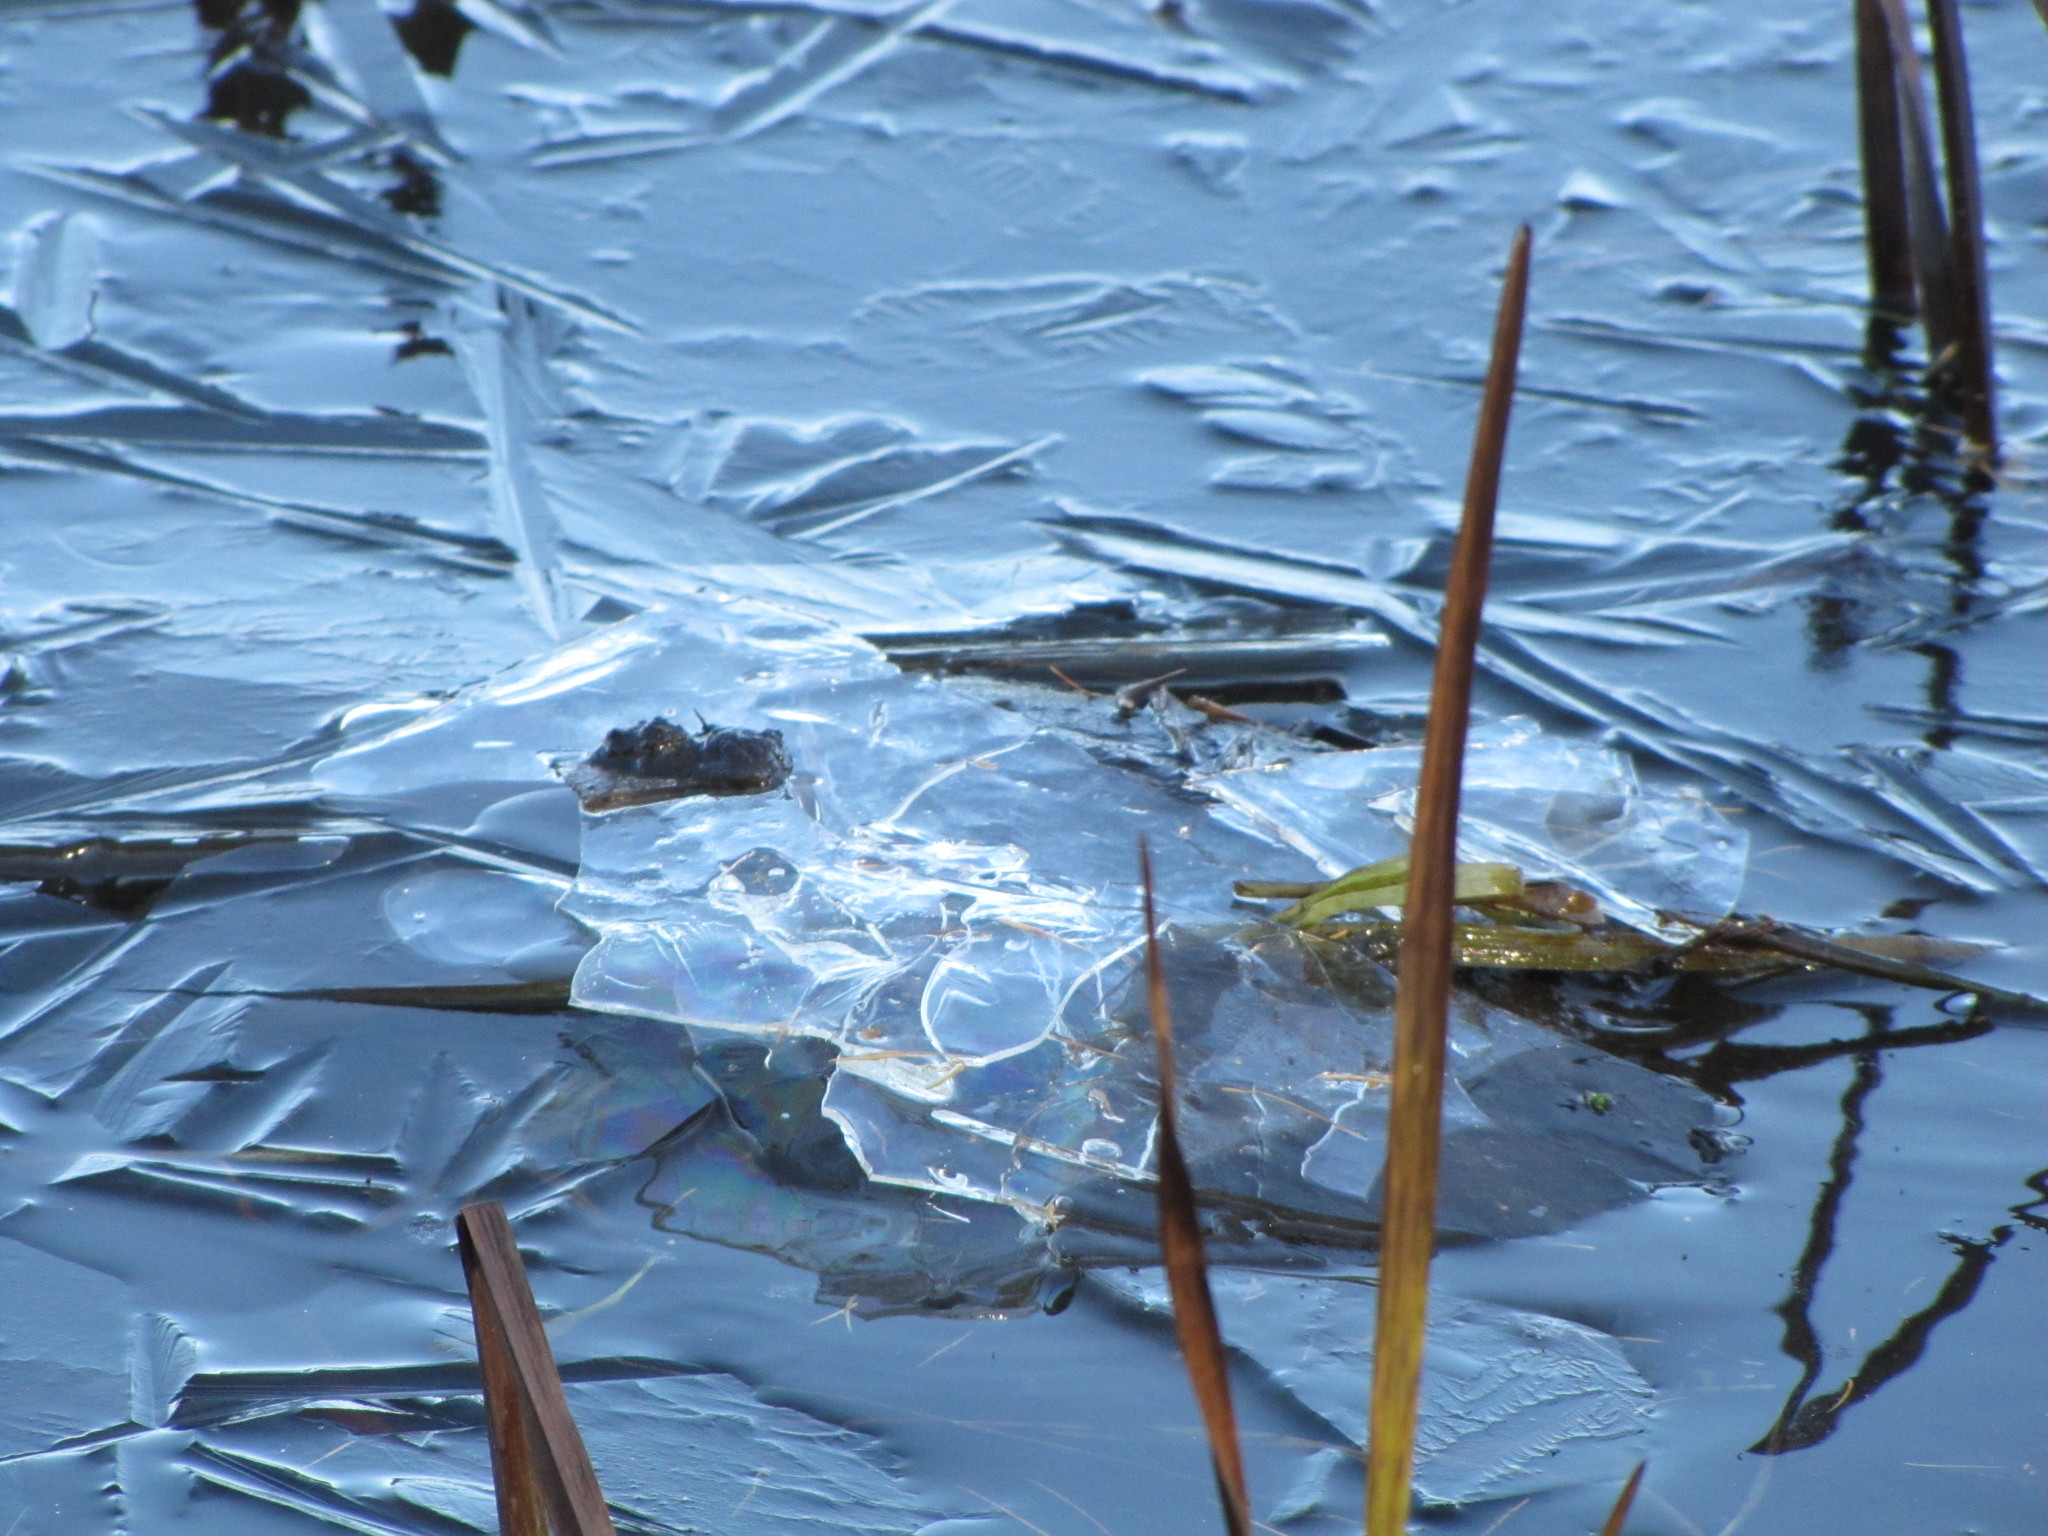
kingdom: Animalia
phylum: Chordata
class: Testudines
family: Chelydridae
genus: Chelydra
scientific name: Chelydra serpentina
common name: Common snapping turtle
